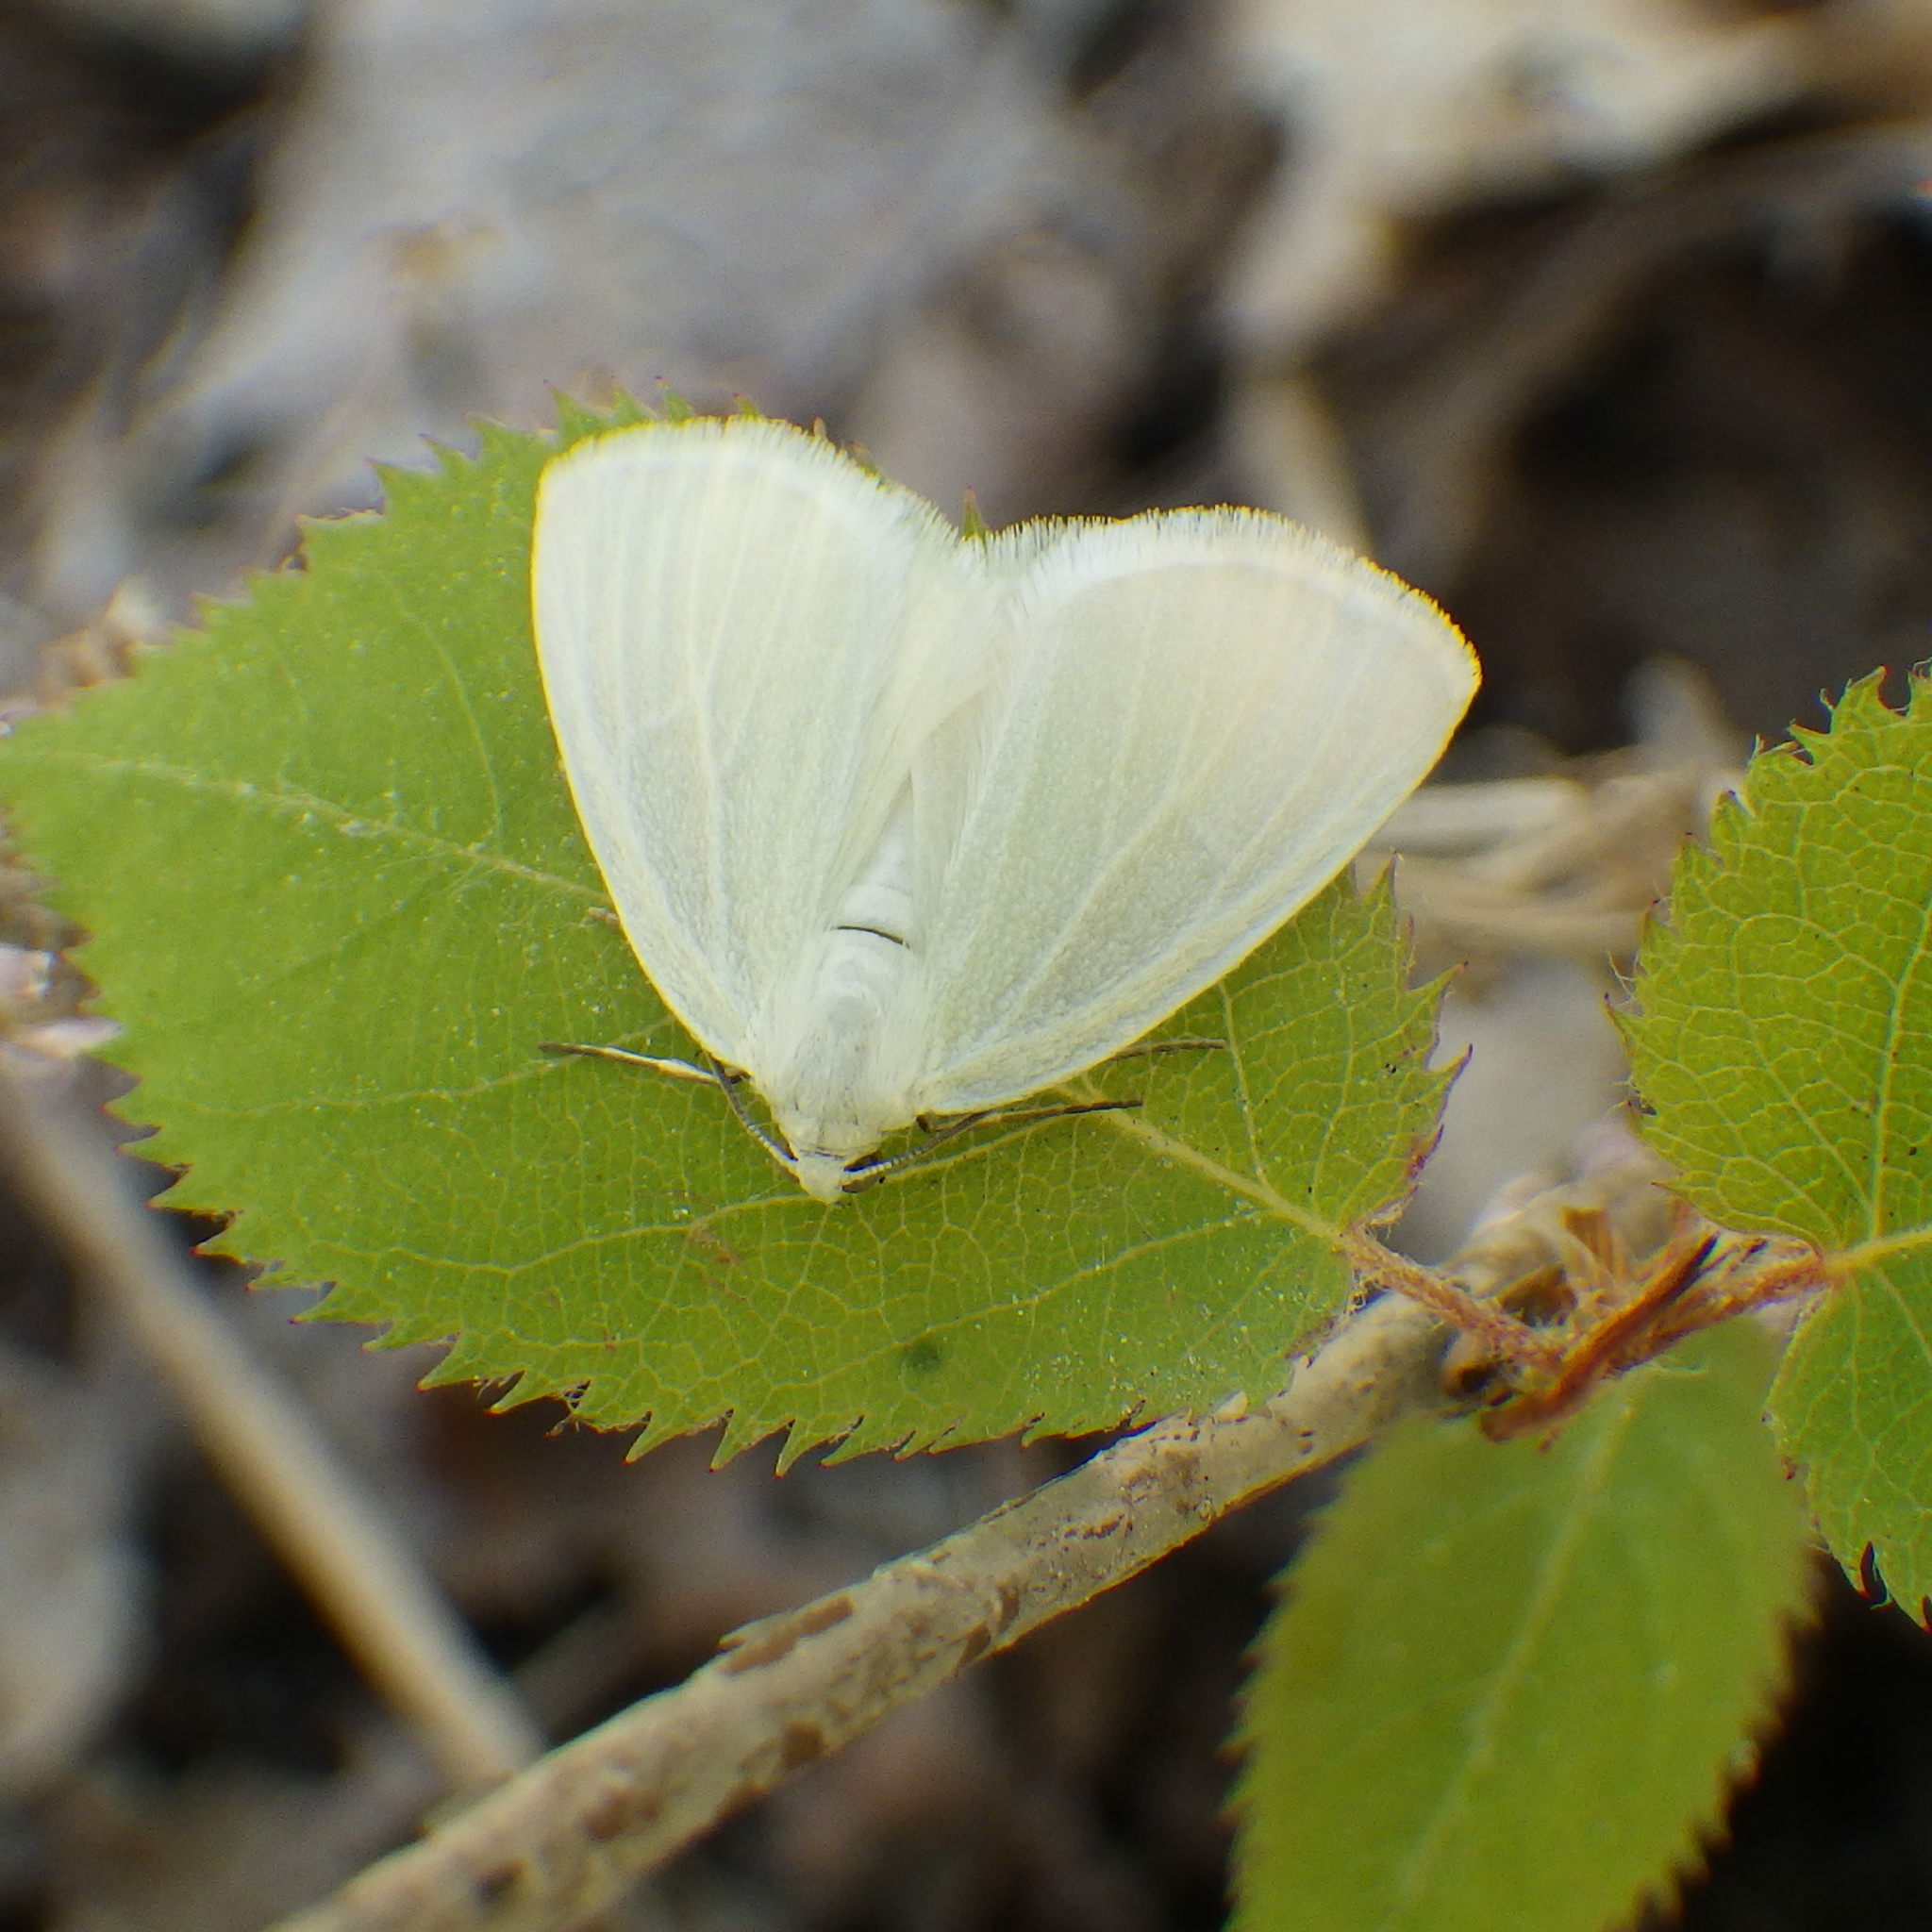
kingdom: Animalia
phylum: Arthropoda
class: Insecta
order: Lepidoptera
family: Geometridae
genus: Lomographa
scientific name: Lomographa vestaliata
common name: White spring moth
